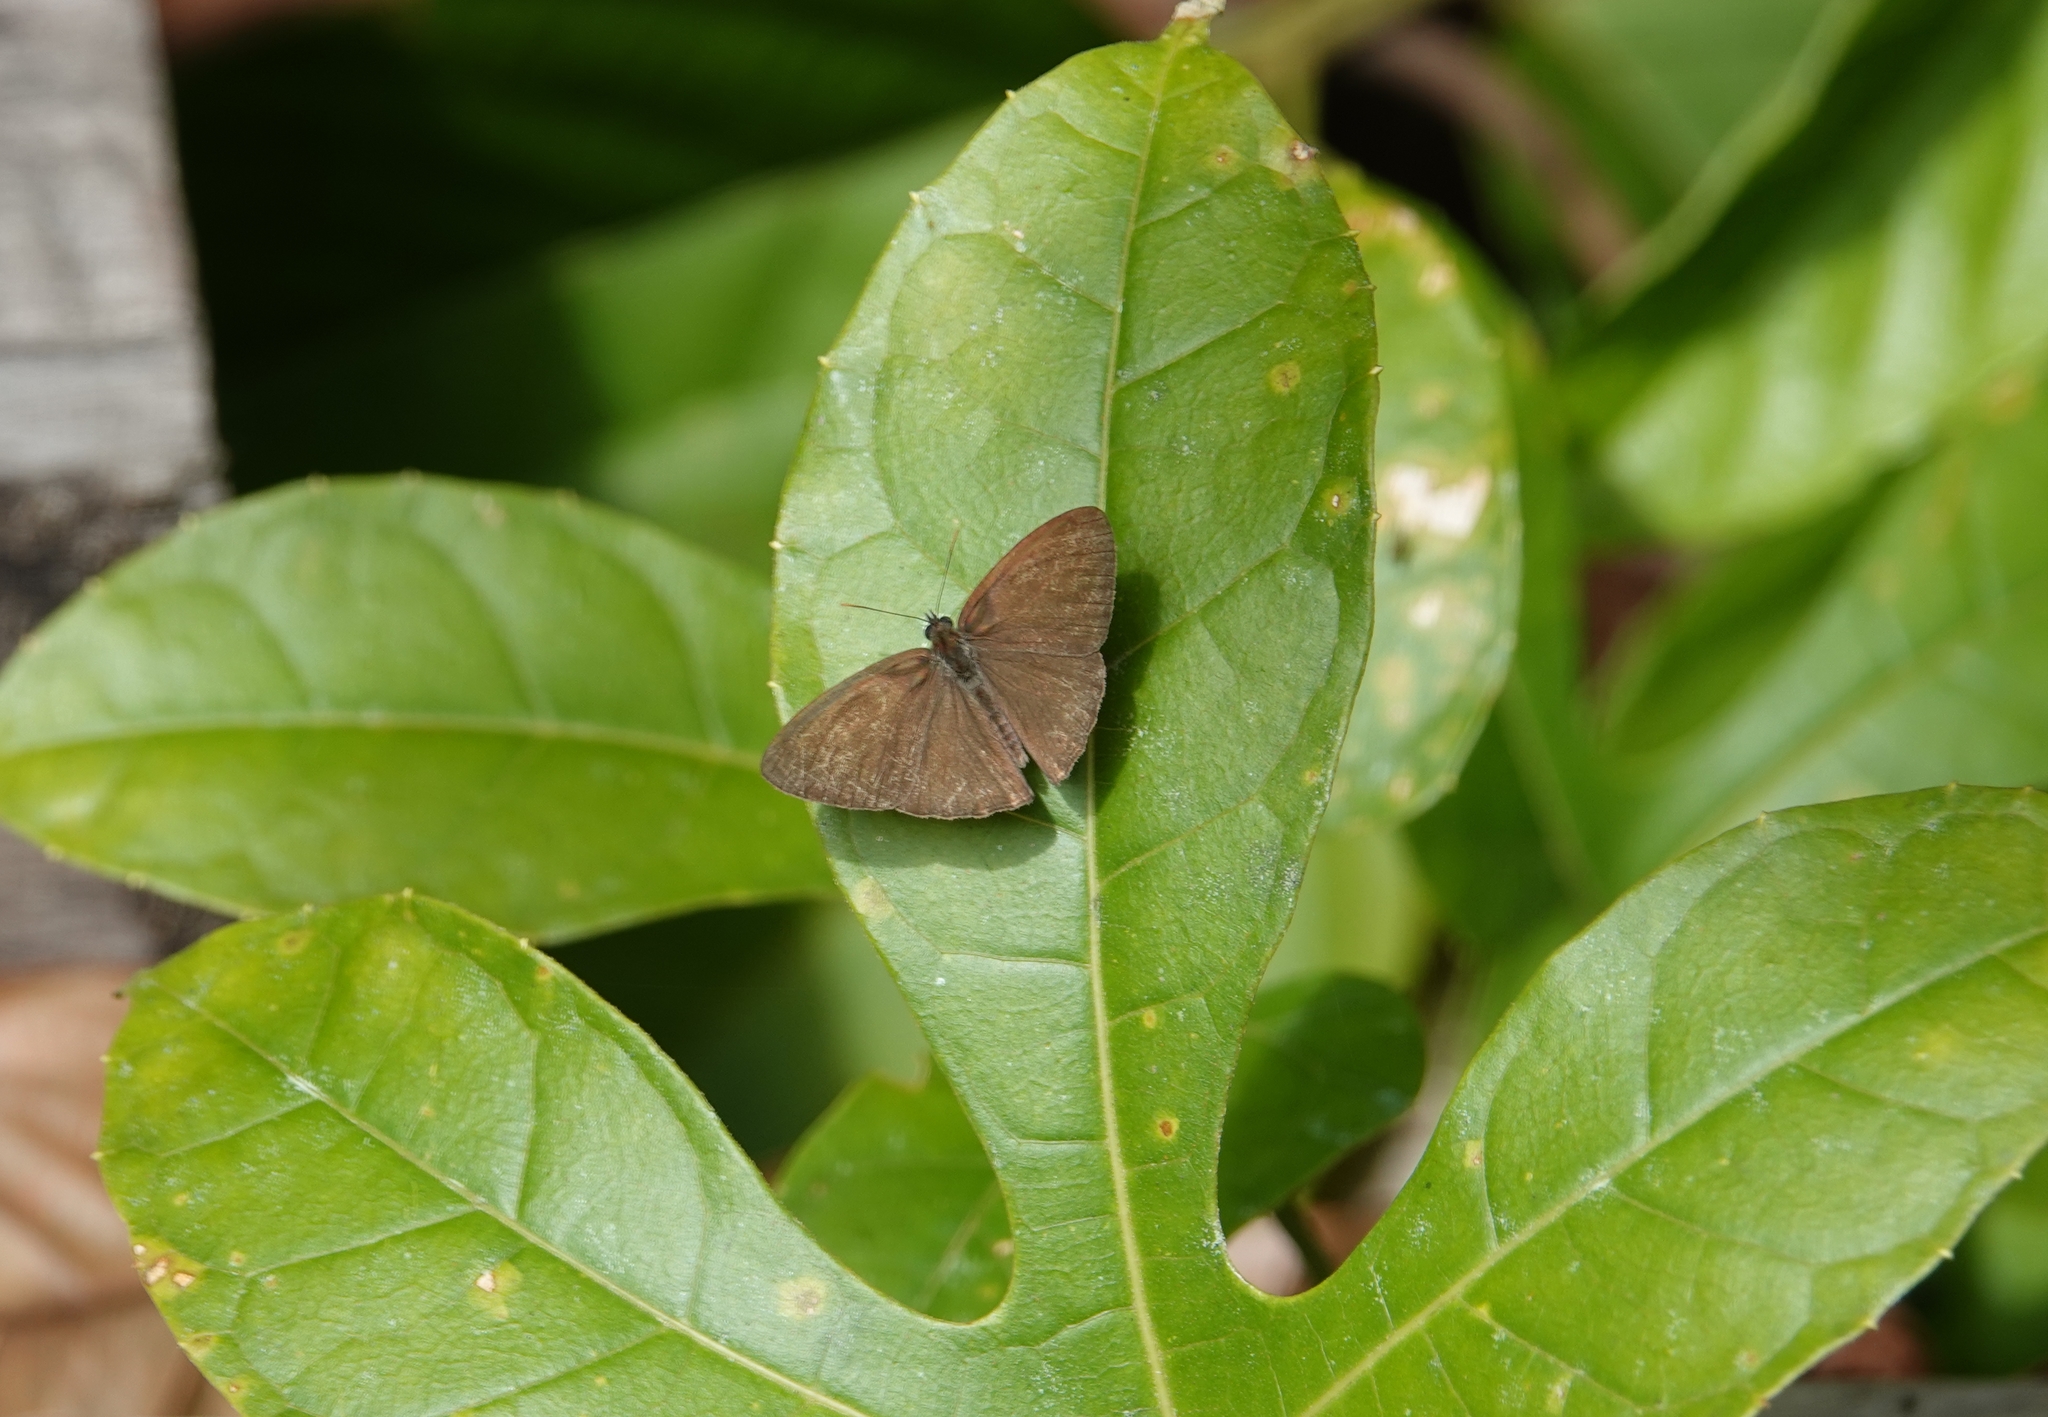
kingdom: Animalia
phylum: Arthropoda
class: Insecta
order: Lepidoptera
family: Nymphalidae
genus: Euptychiina
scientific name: Euptychiina
